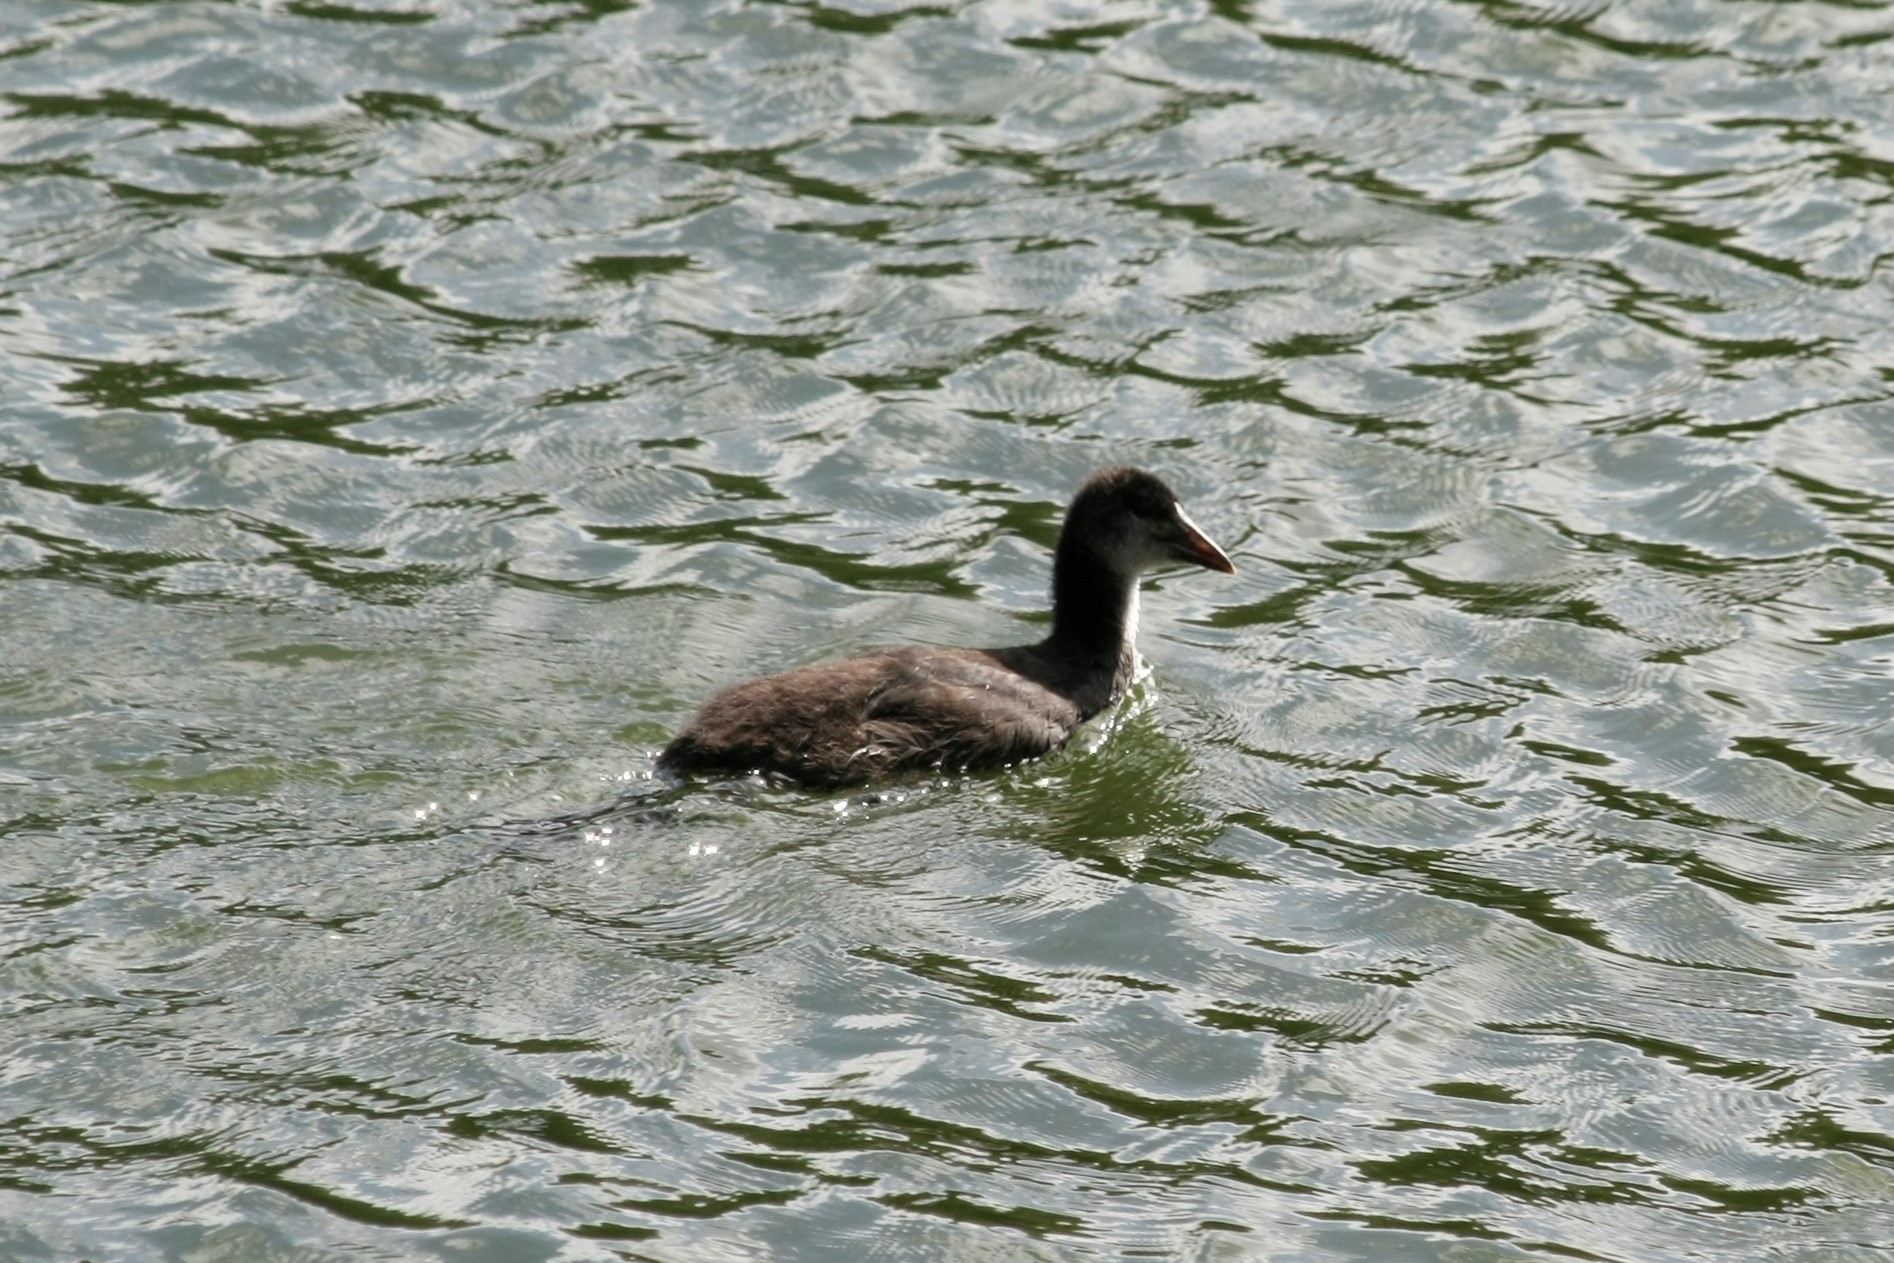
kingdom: Animalia
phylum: Chordata
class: Aves
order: Gruiformes
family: Rallidae
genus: Fulica
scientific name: Fulica atra
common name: Eurasian coot
